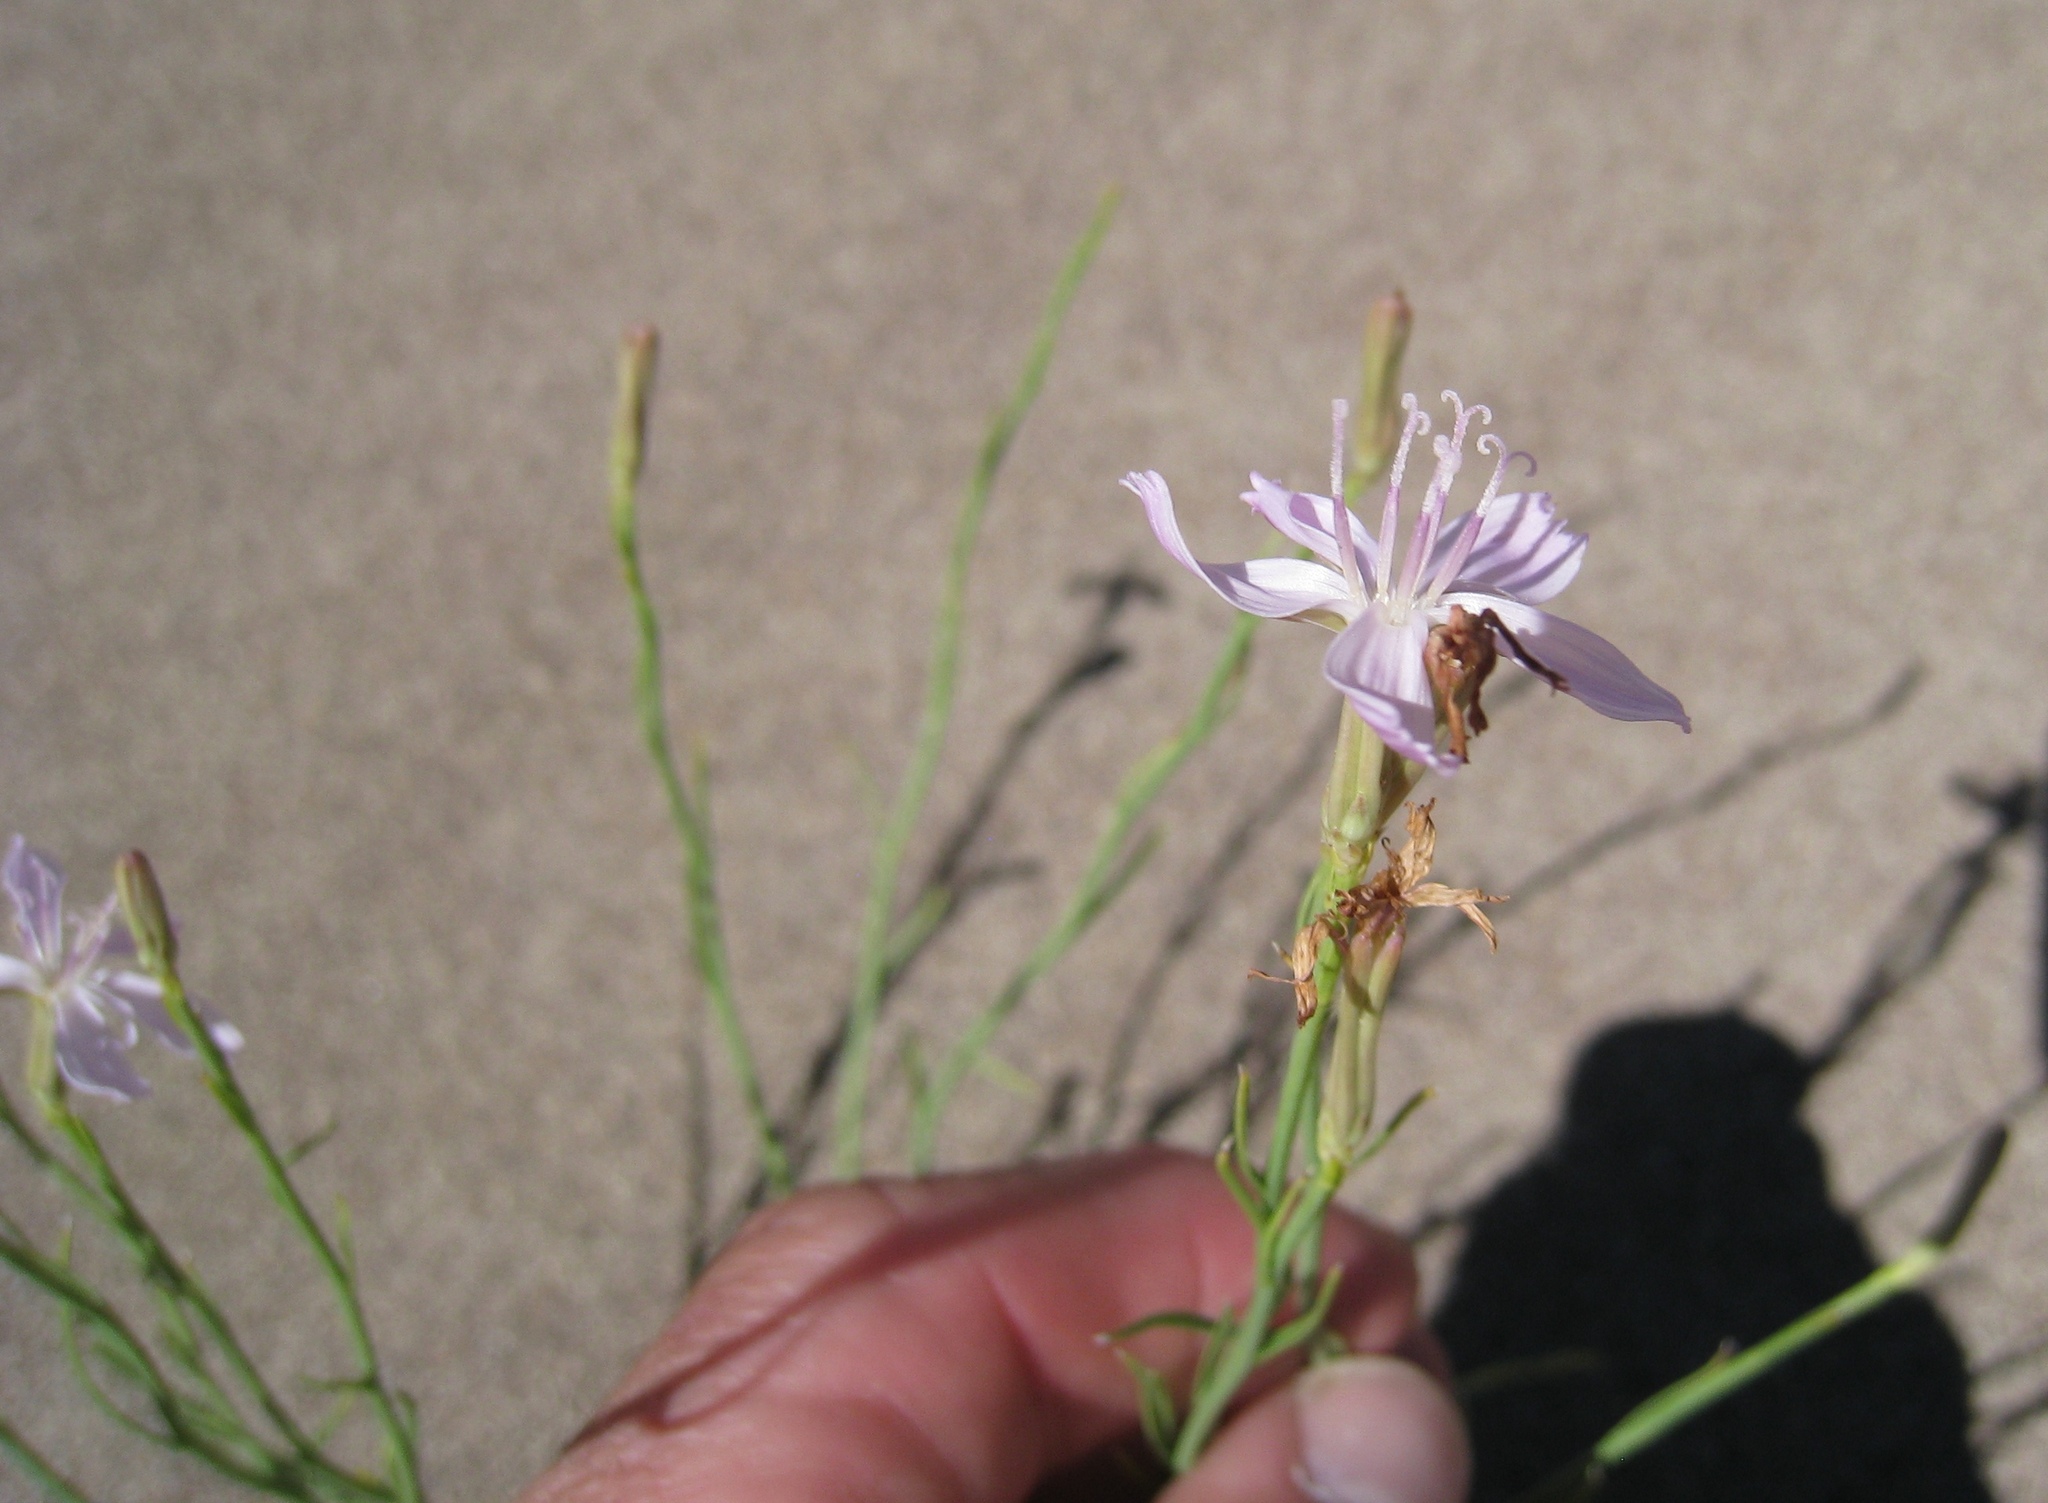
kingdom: Plantae
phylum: Tracheophyta
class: Magnoliopsida
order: Asterales
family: Asteraceae
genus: Lygodesmia
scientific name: Lygodesmia juncea
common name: Common skeletonweed
